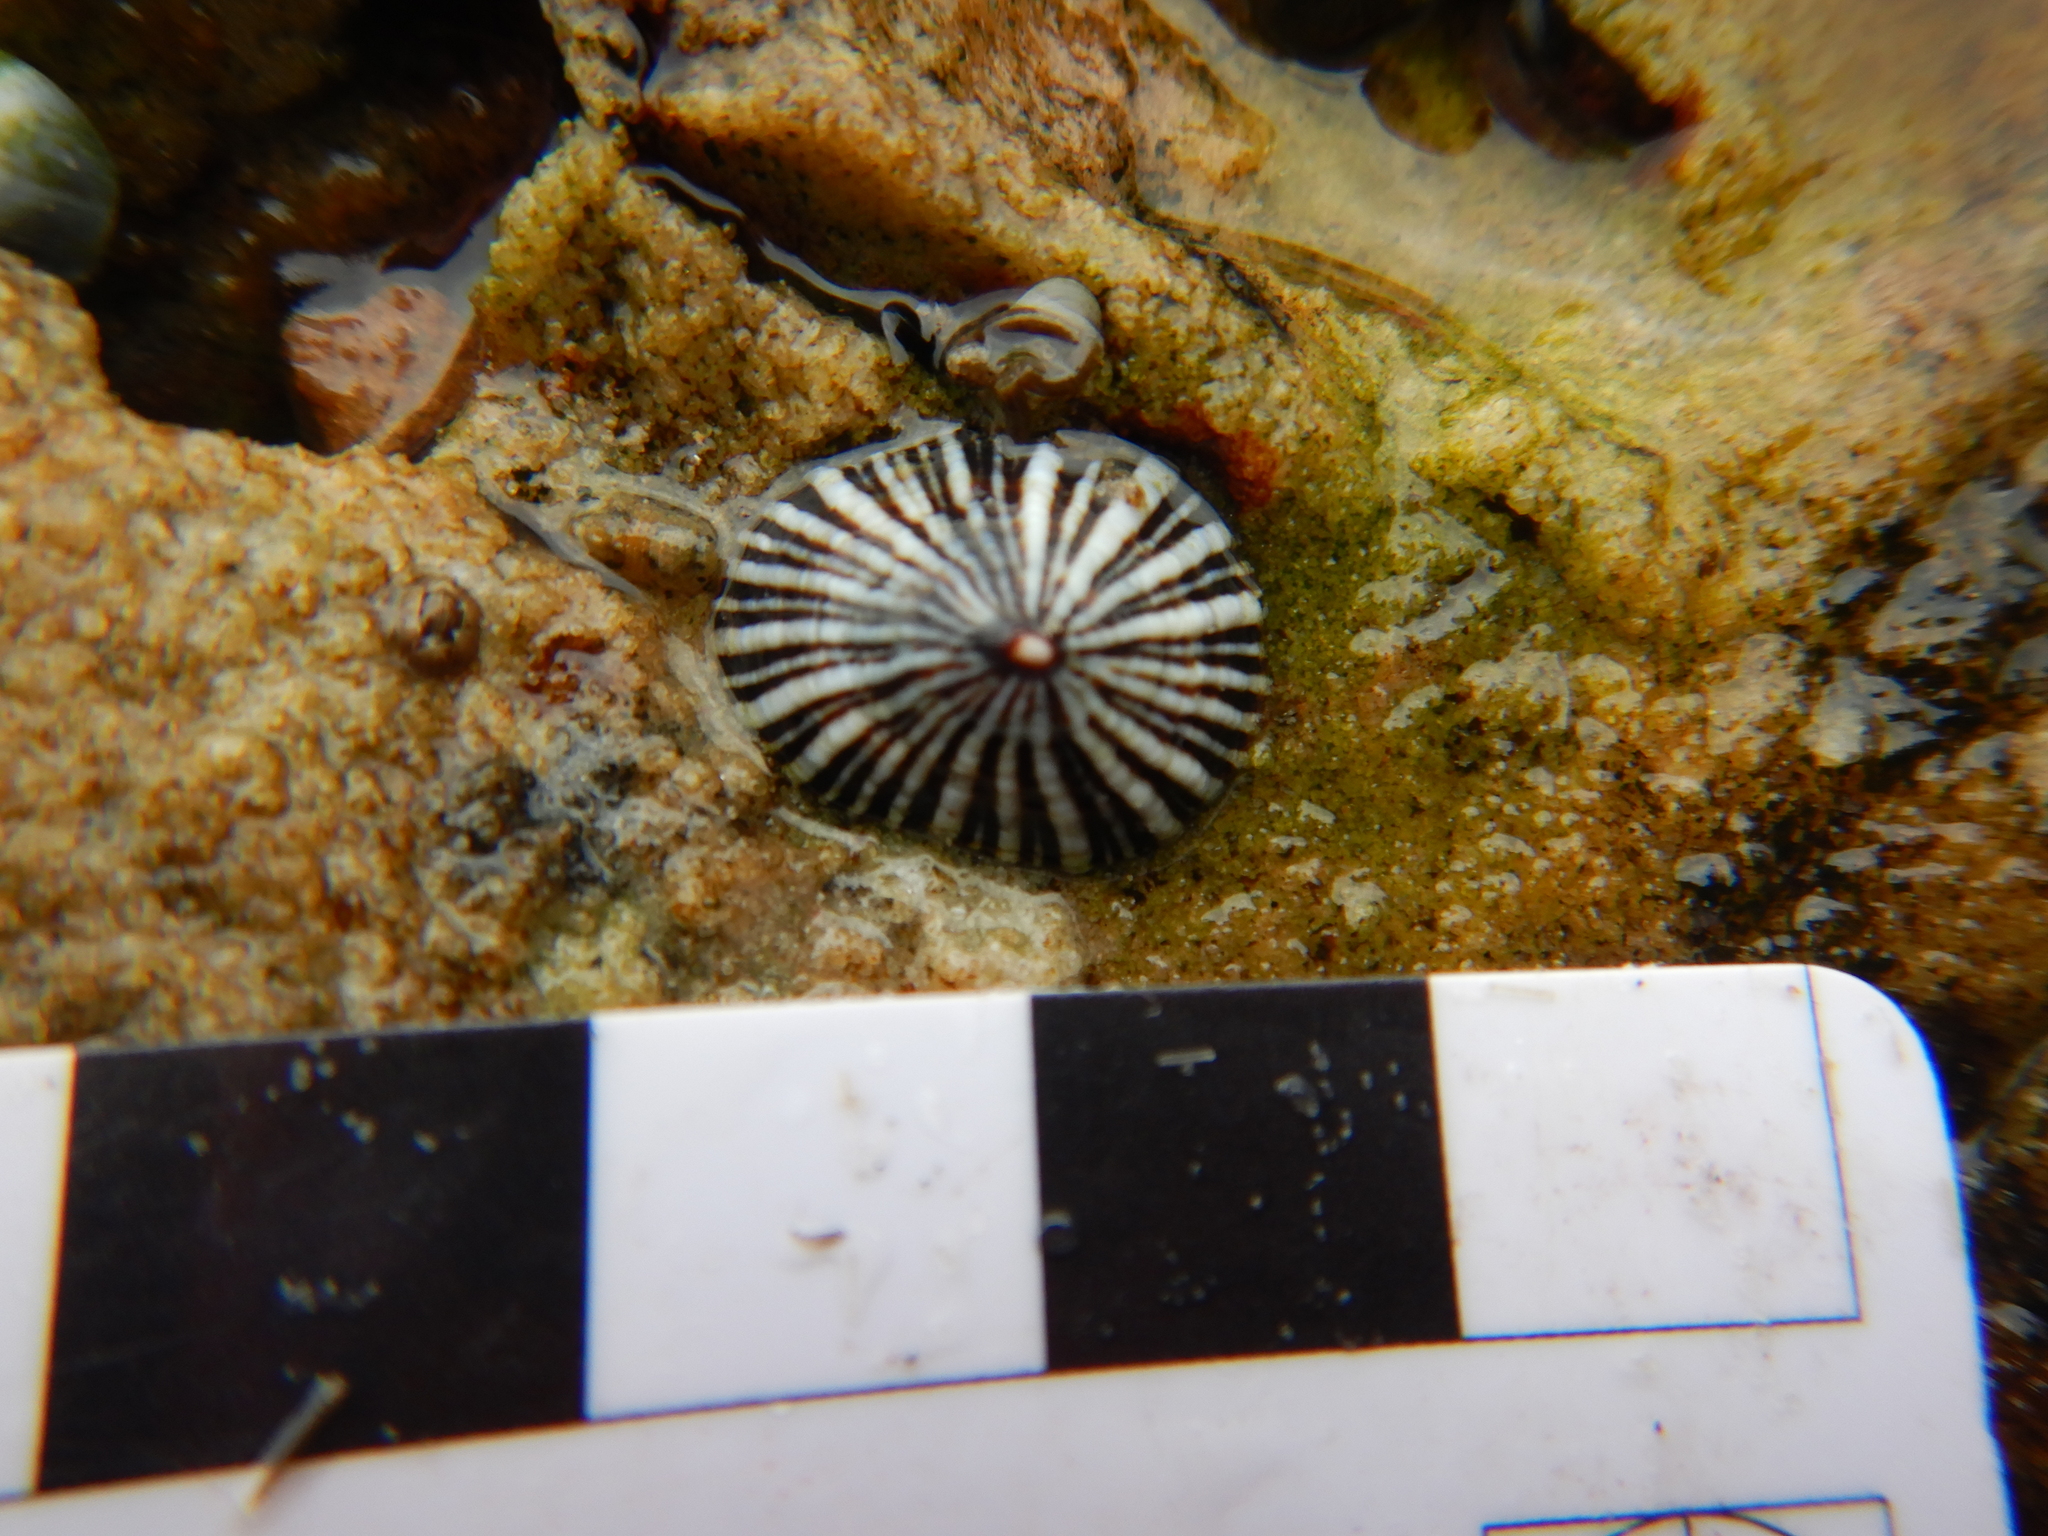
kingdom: Animalia
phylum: Mollusca
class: Gastropoda
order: Siphonariida
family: Siphonariidae
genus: Siphonaria
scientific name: Siphonaria funiculata
